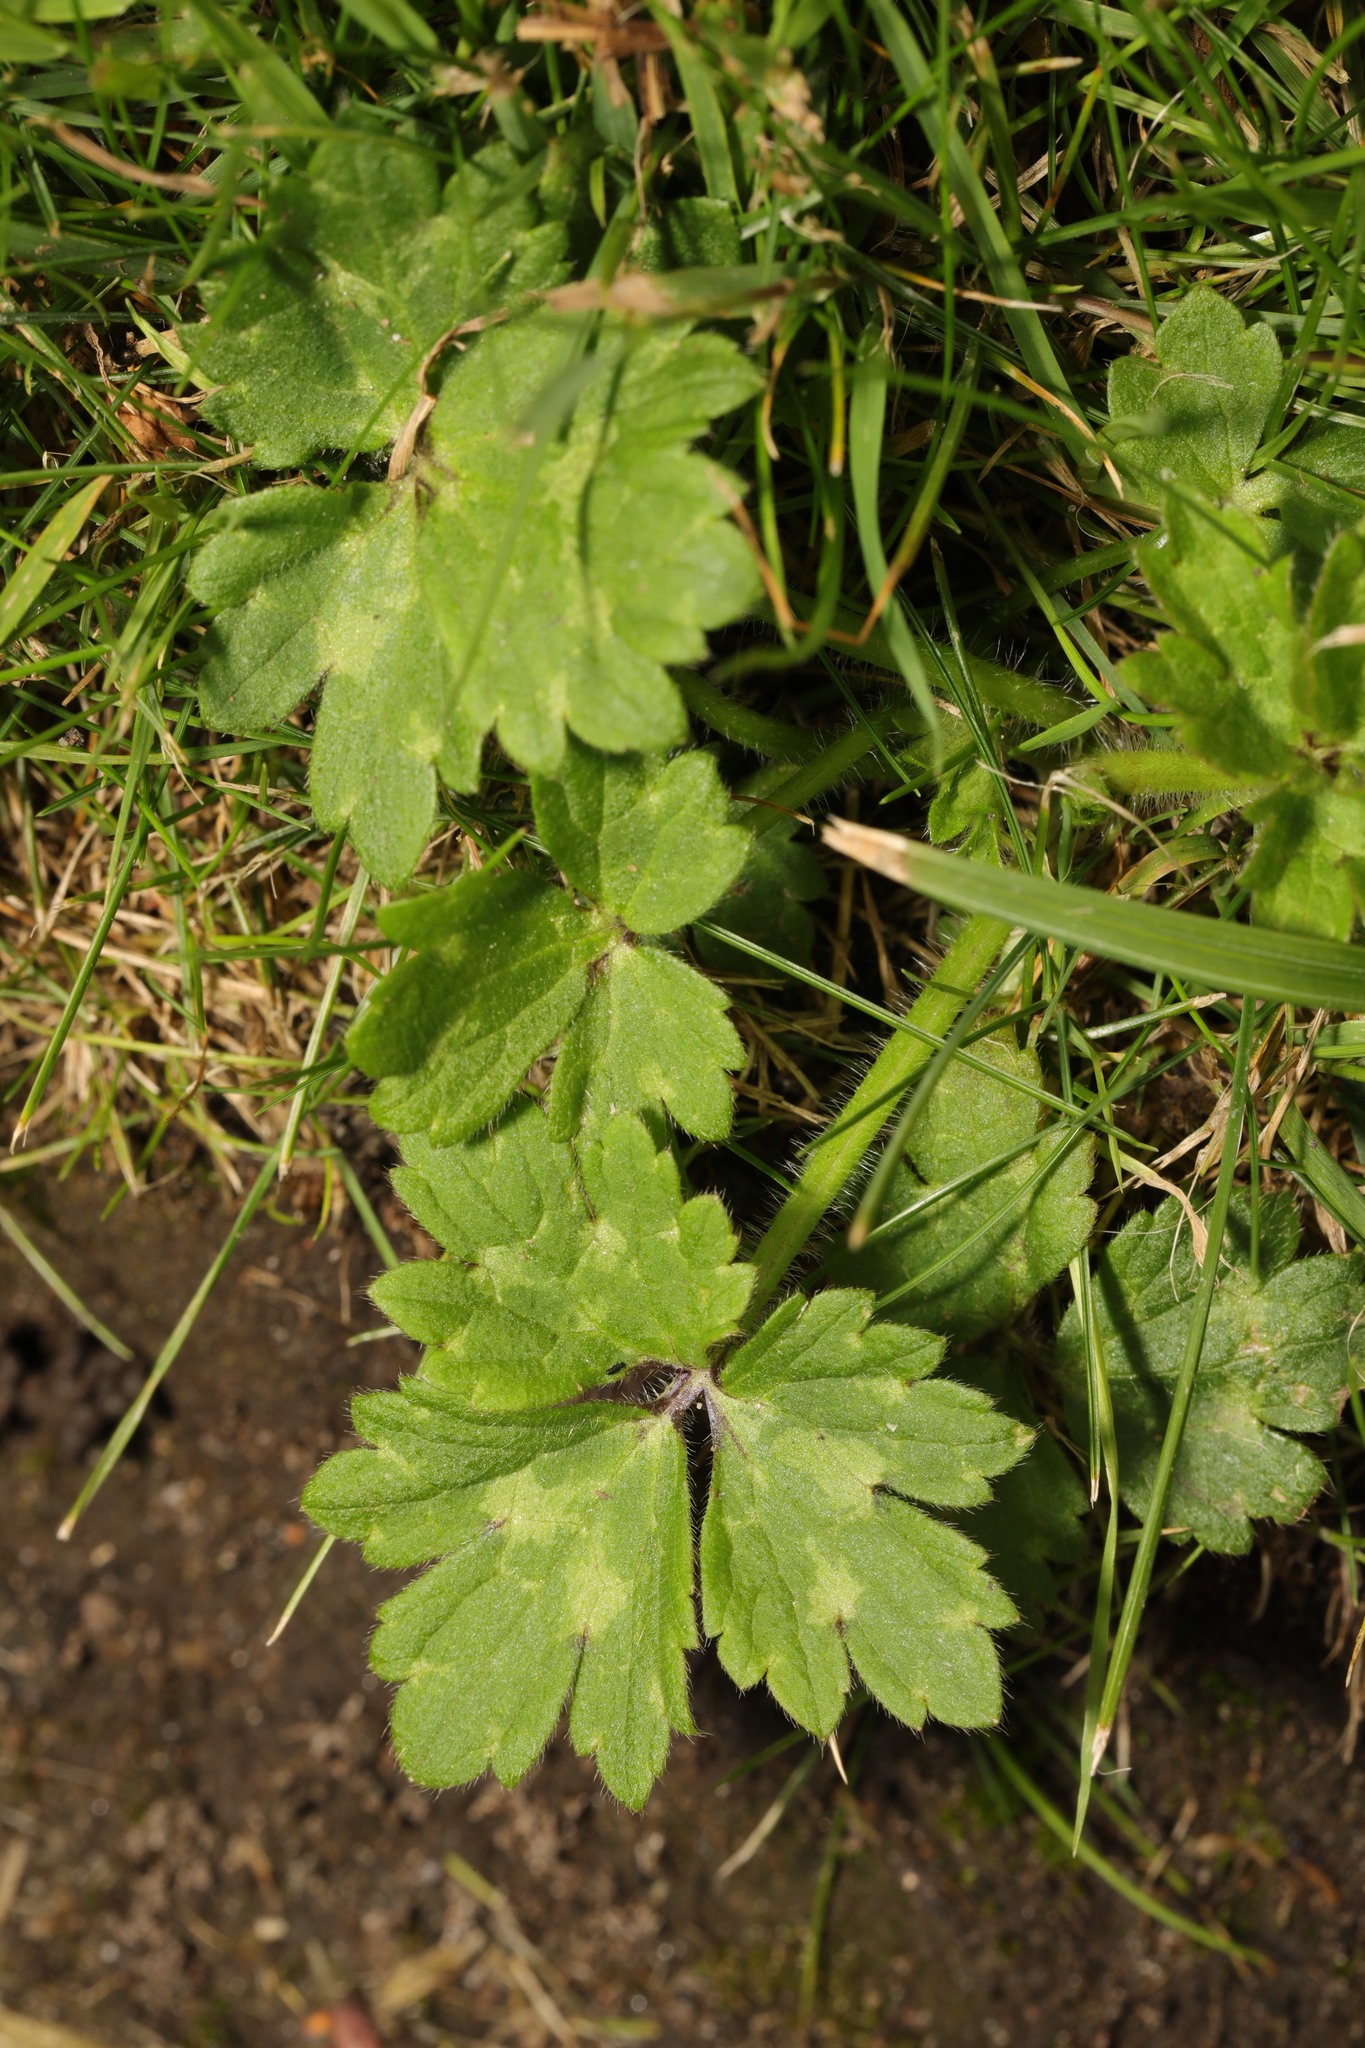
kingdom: Plantae
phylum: Tracheophyta
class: Magnoliopsida
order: Ranunculales
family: Ranunculaceae
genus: Ranunculus
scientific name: Ranunculus repens
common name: Creeping buttercup
